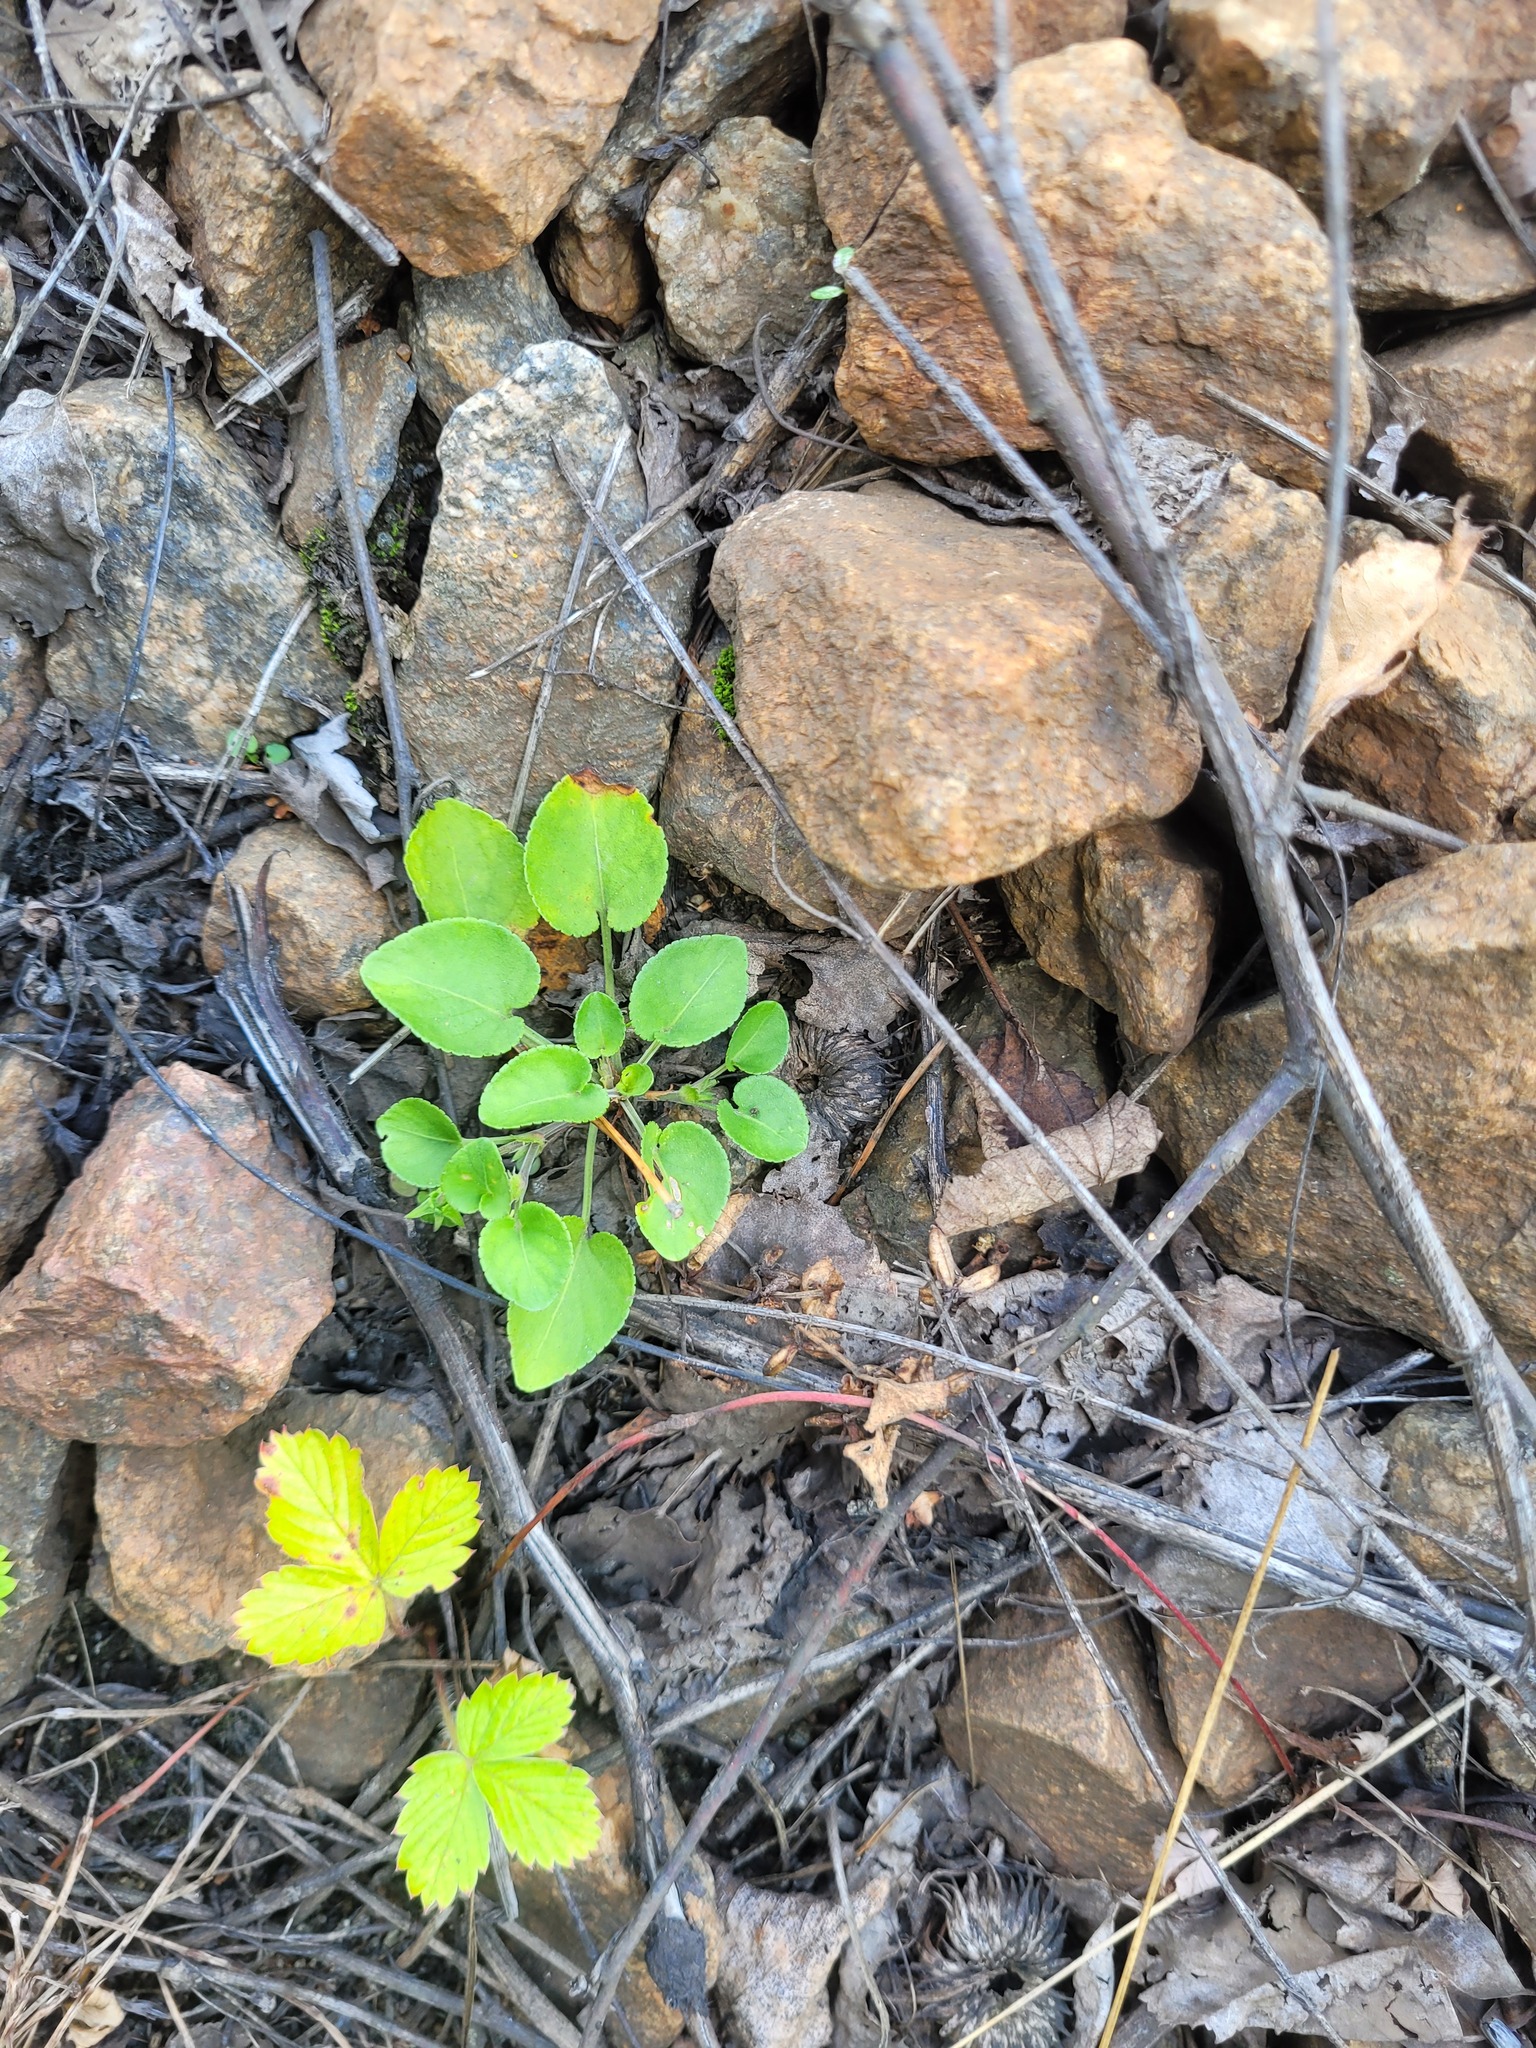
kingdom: Plantae
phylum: Tracheophyta
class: Magnoliopsida
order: Malpighiales
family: Violaceae
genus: Viola
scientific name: Viola rupestris
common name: Teesdale violet
